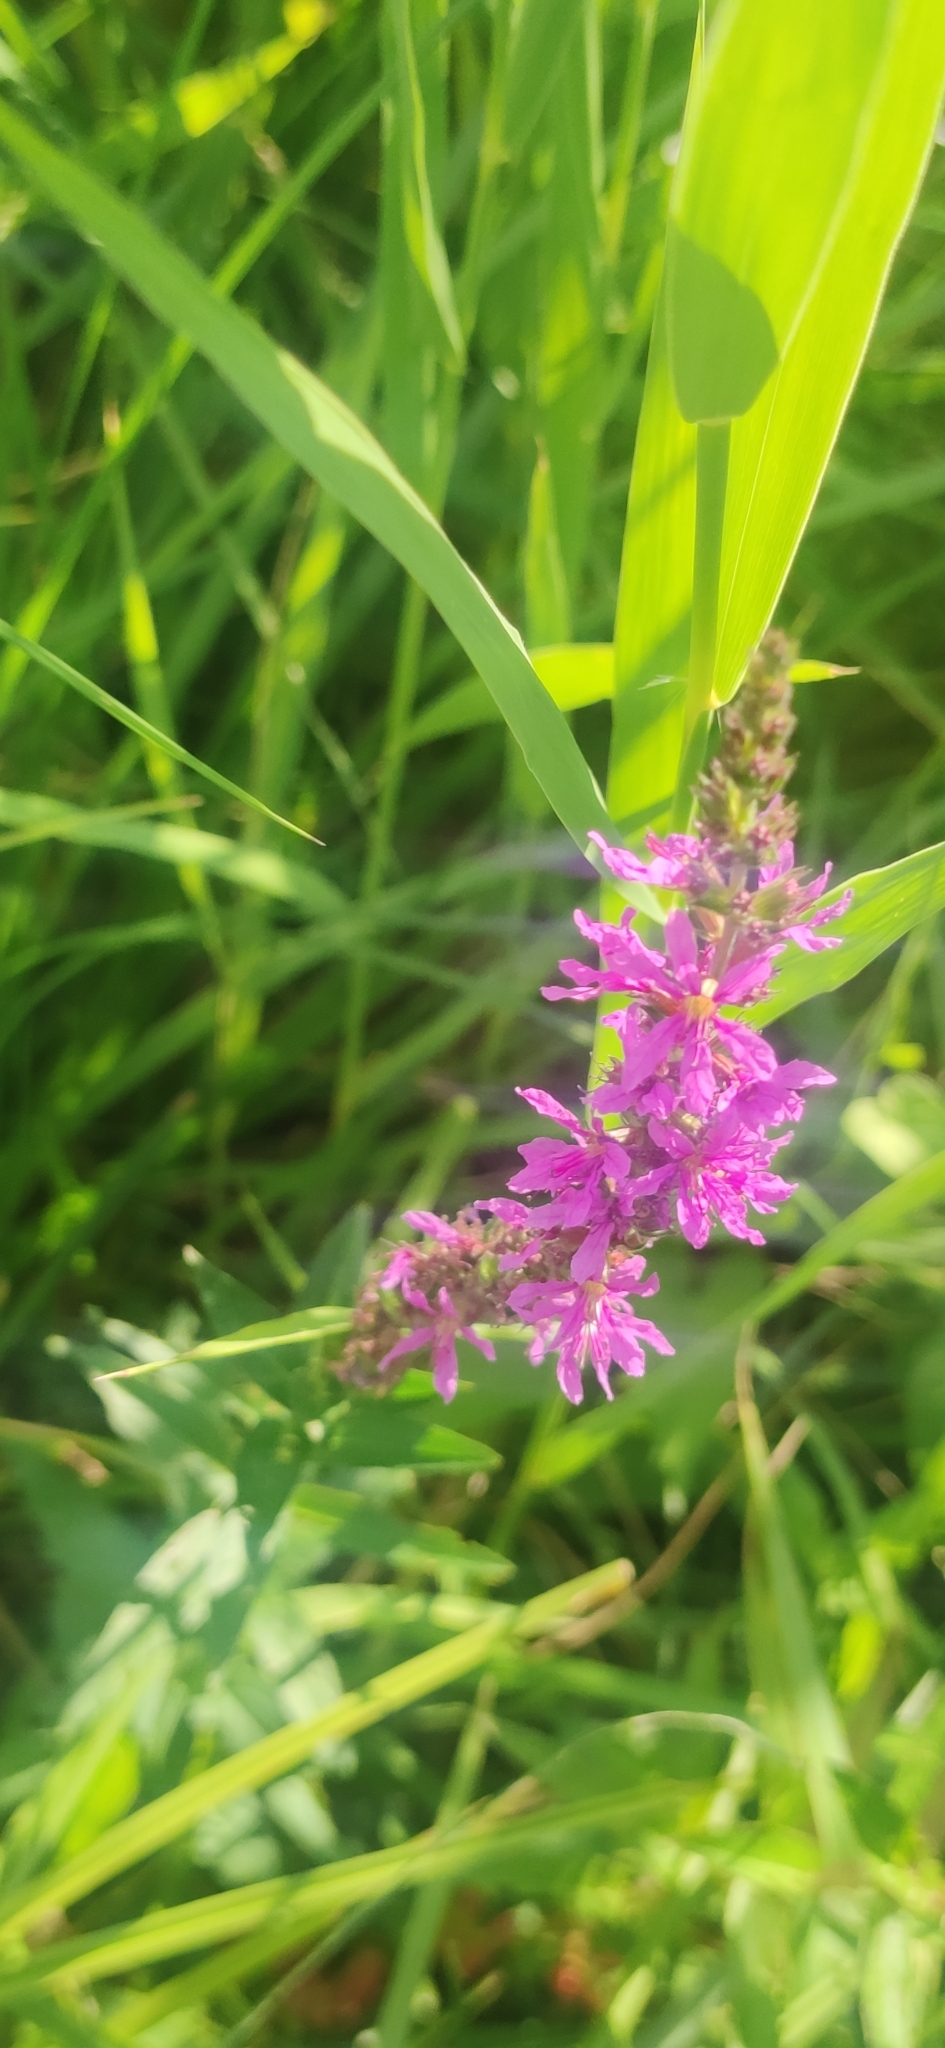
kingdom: Plantae
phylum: Tracheophyta
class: Magnoliopsida
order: Myrtales
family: Lythraceae
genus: Lythrum
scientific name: Lythrum salicaria
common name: Purple loosestrife
